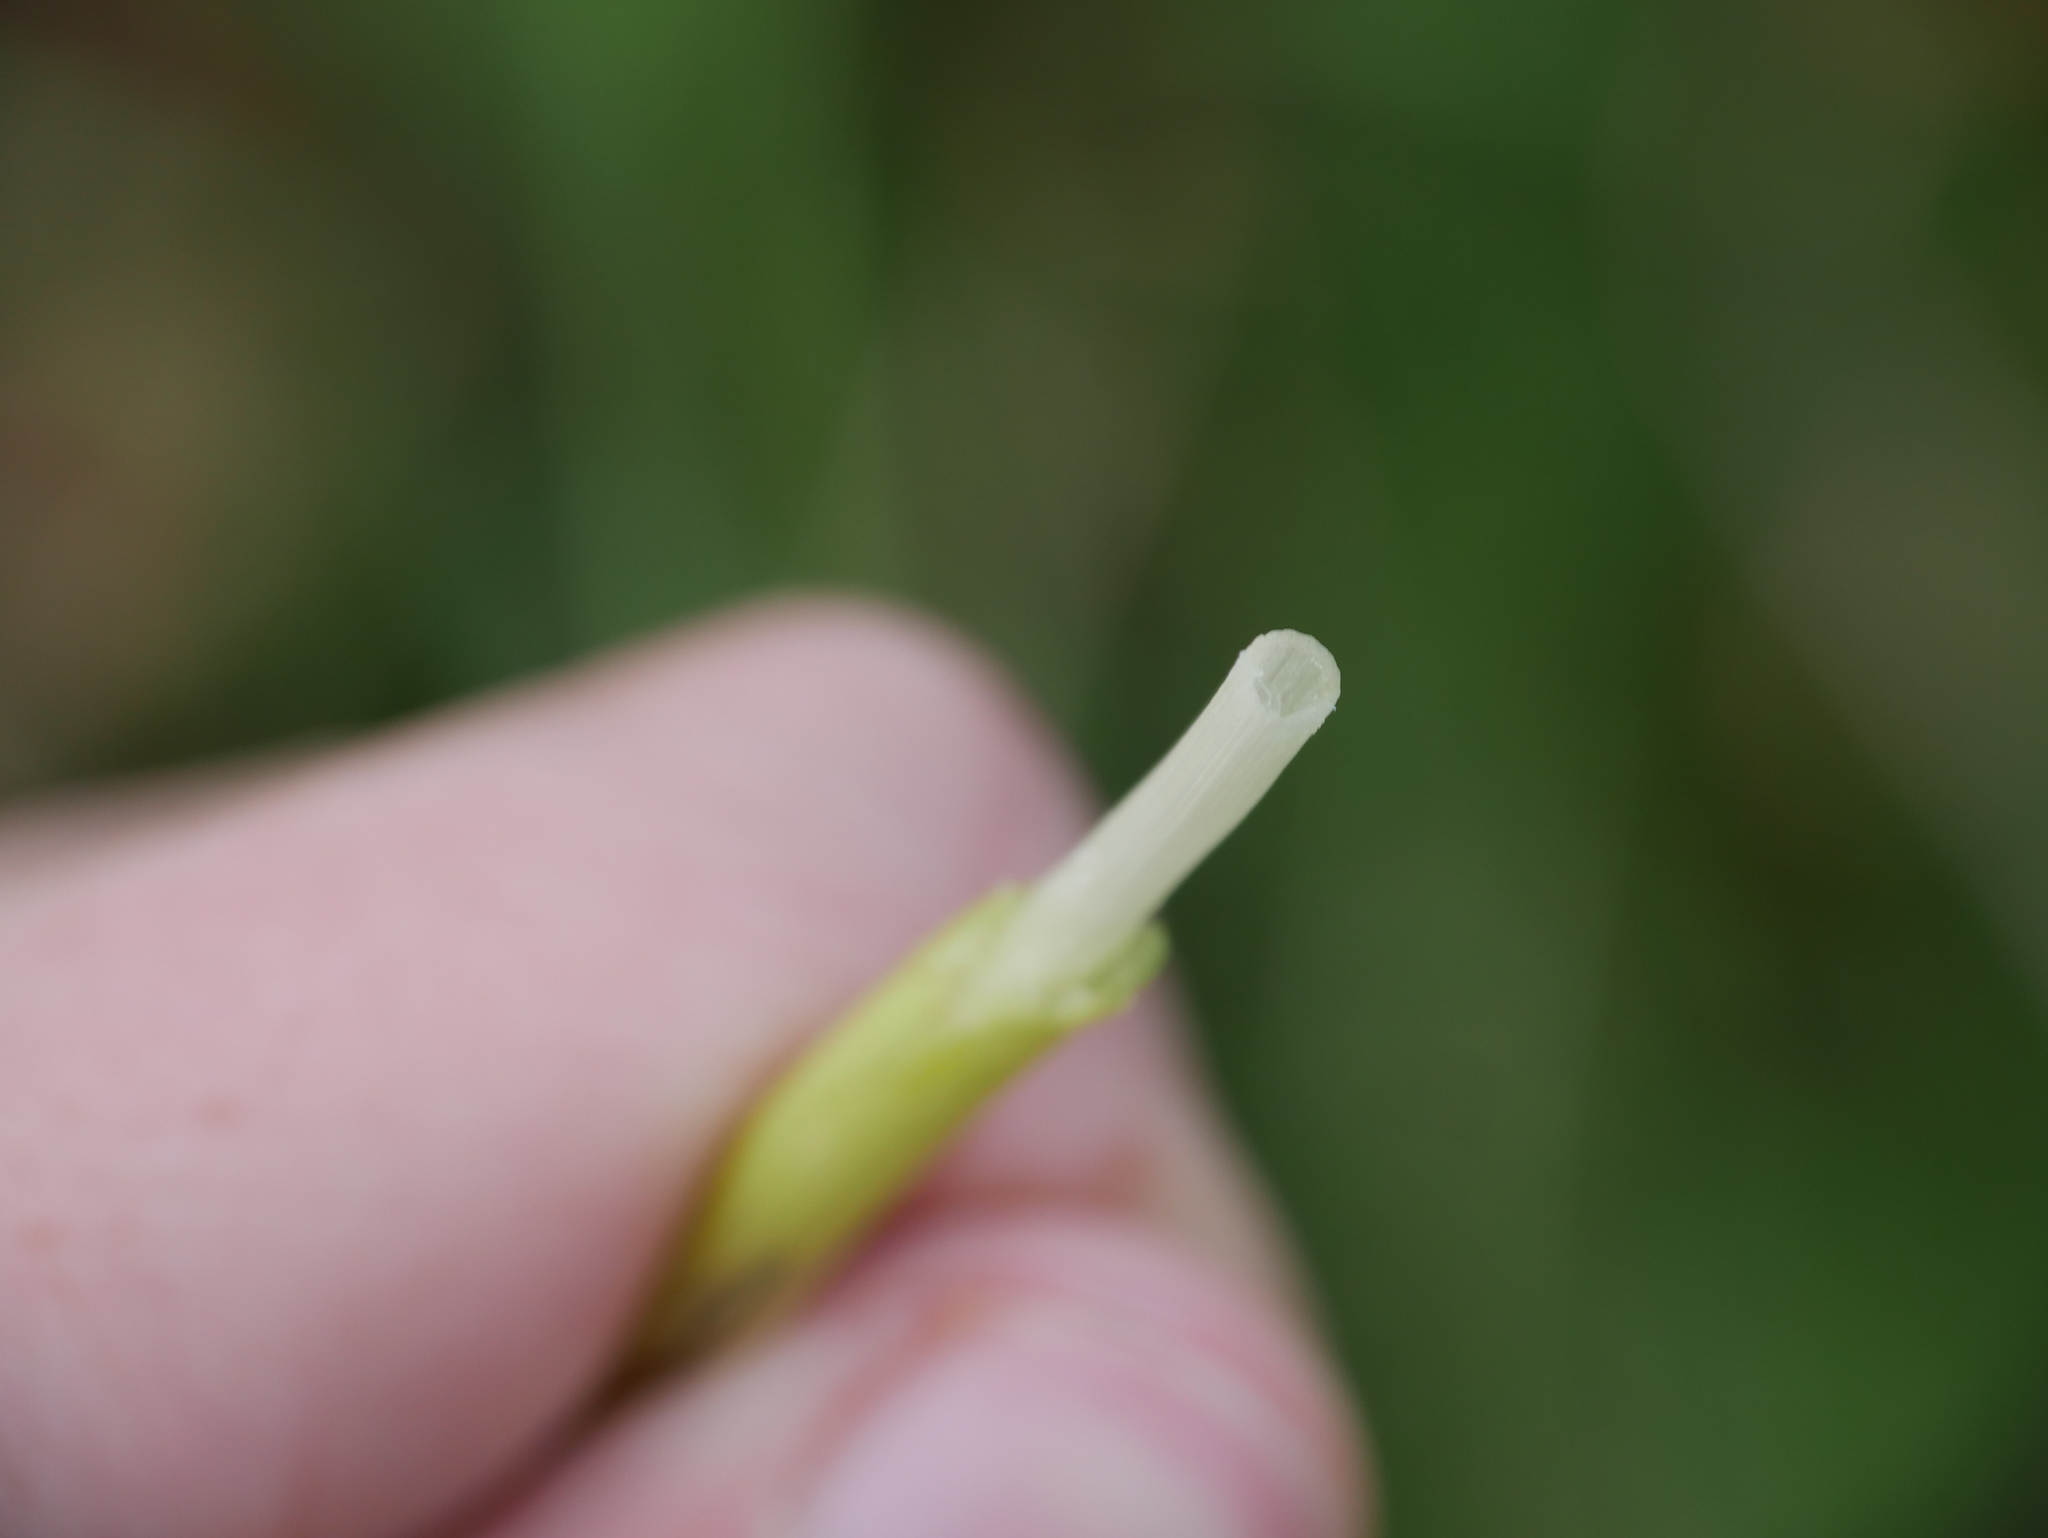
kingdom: Plantae
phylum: Tracheophyta
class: Polypodiopsida
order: Equisetales
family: Equisetaceae
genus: Equisetum
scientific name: Equisetum arvense
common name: Field horsetail
